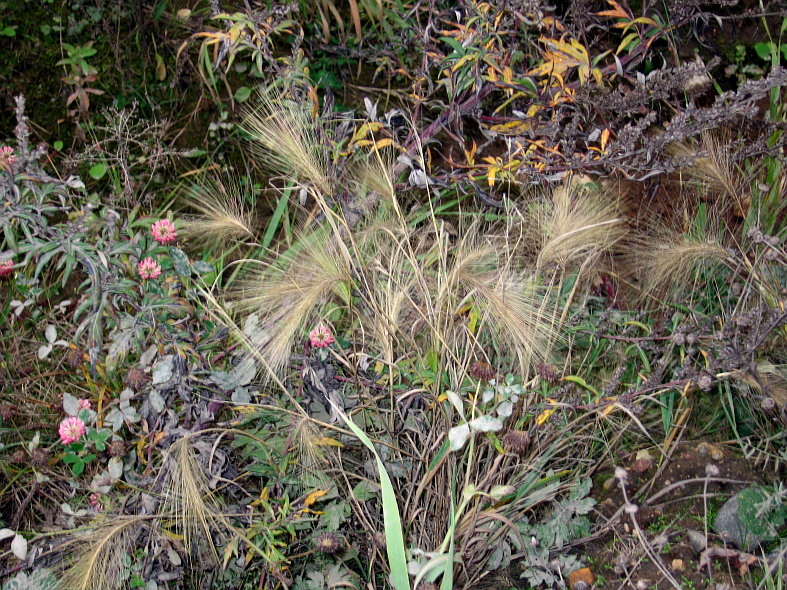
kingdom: Plantae
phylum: Tracheophyta
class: Liliopsida
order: Poales
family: Poaceae
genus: Hordeum
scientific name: Hordeum jubatum
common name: Foxtail barley
